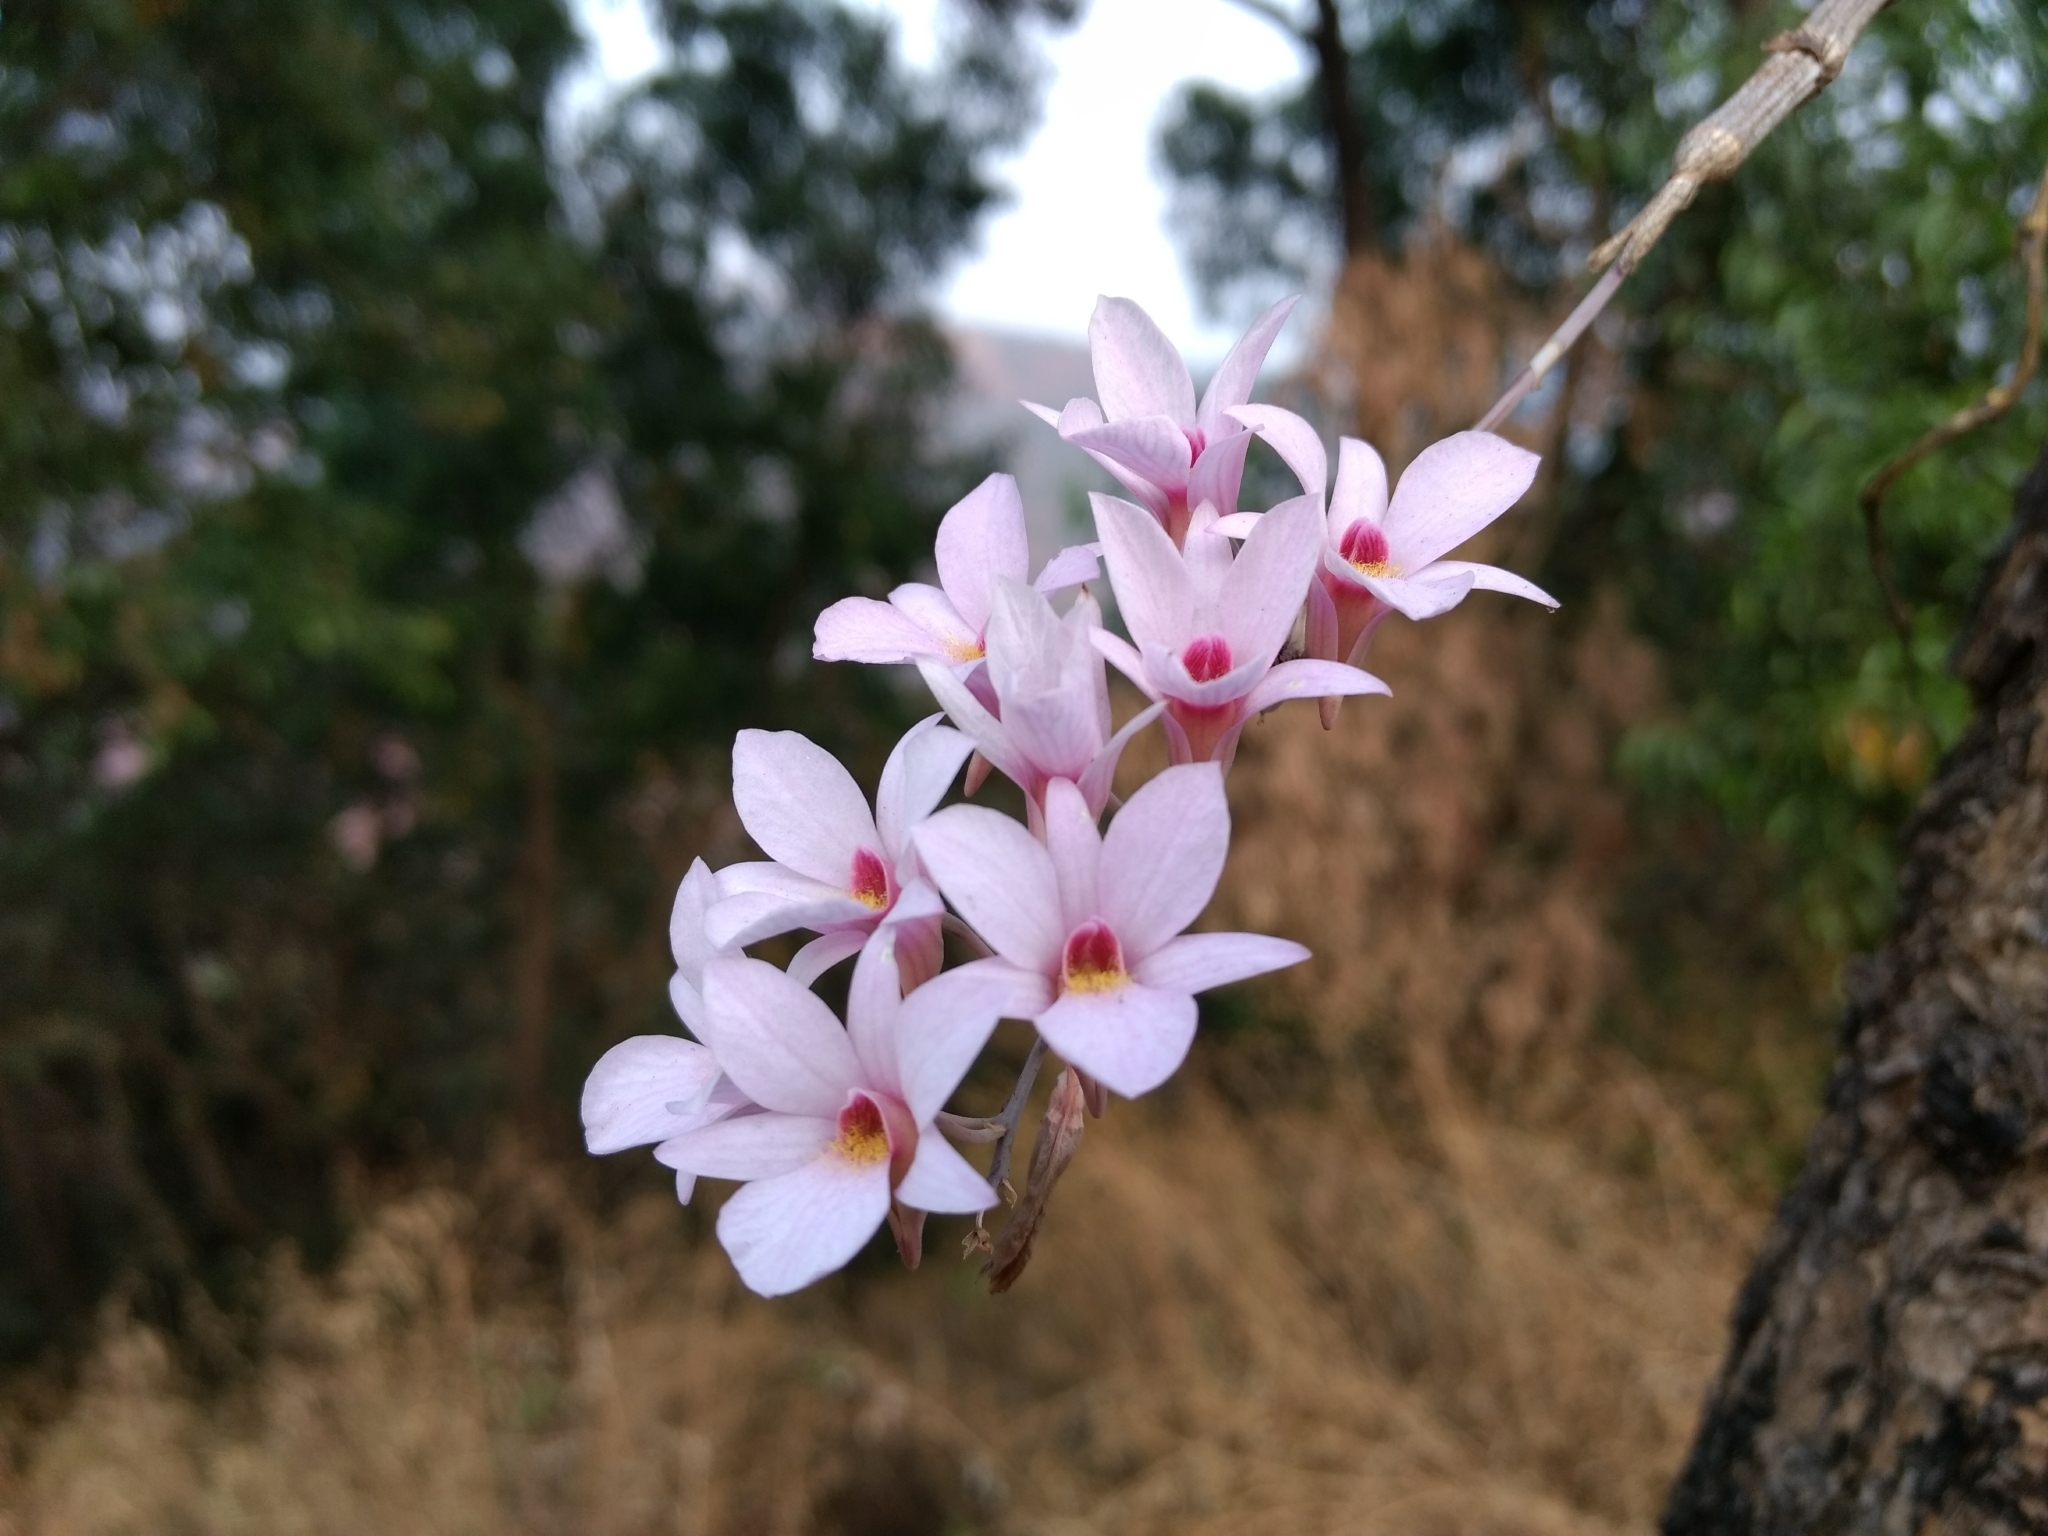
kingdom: Plantae
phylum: Tracheophyta
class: Liliopsida
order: Asparagales
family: Orchidaceae
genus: Dendrobium
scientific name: Dendrobium barbatulum
